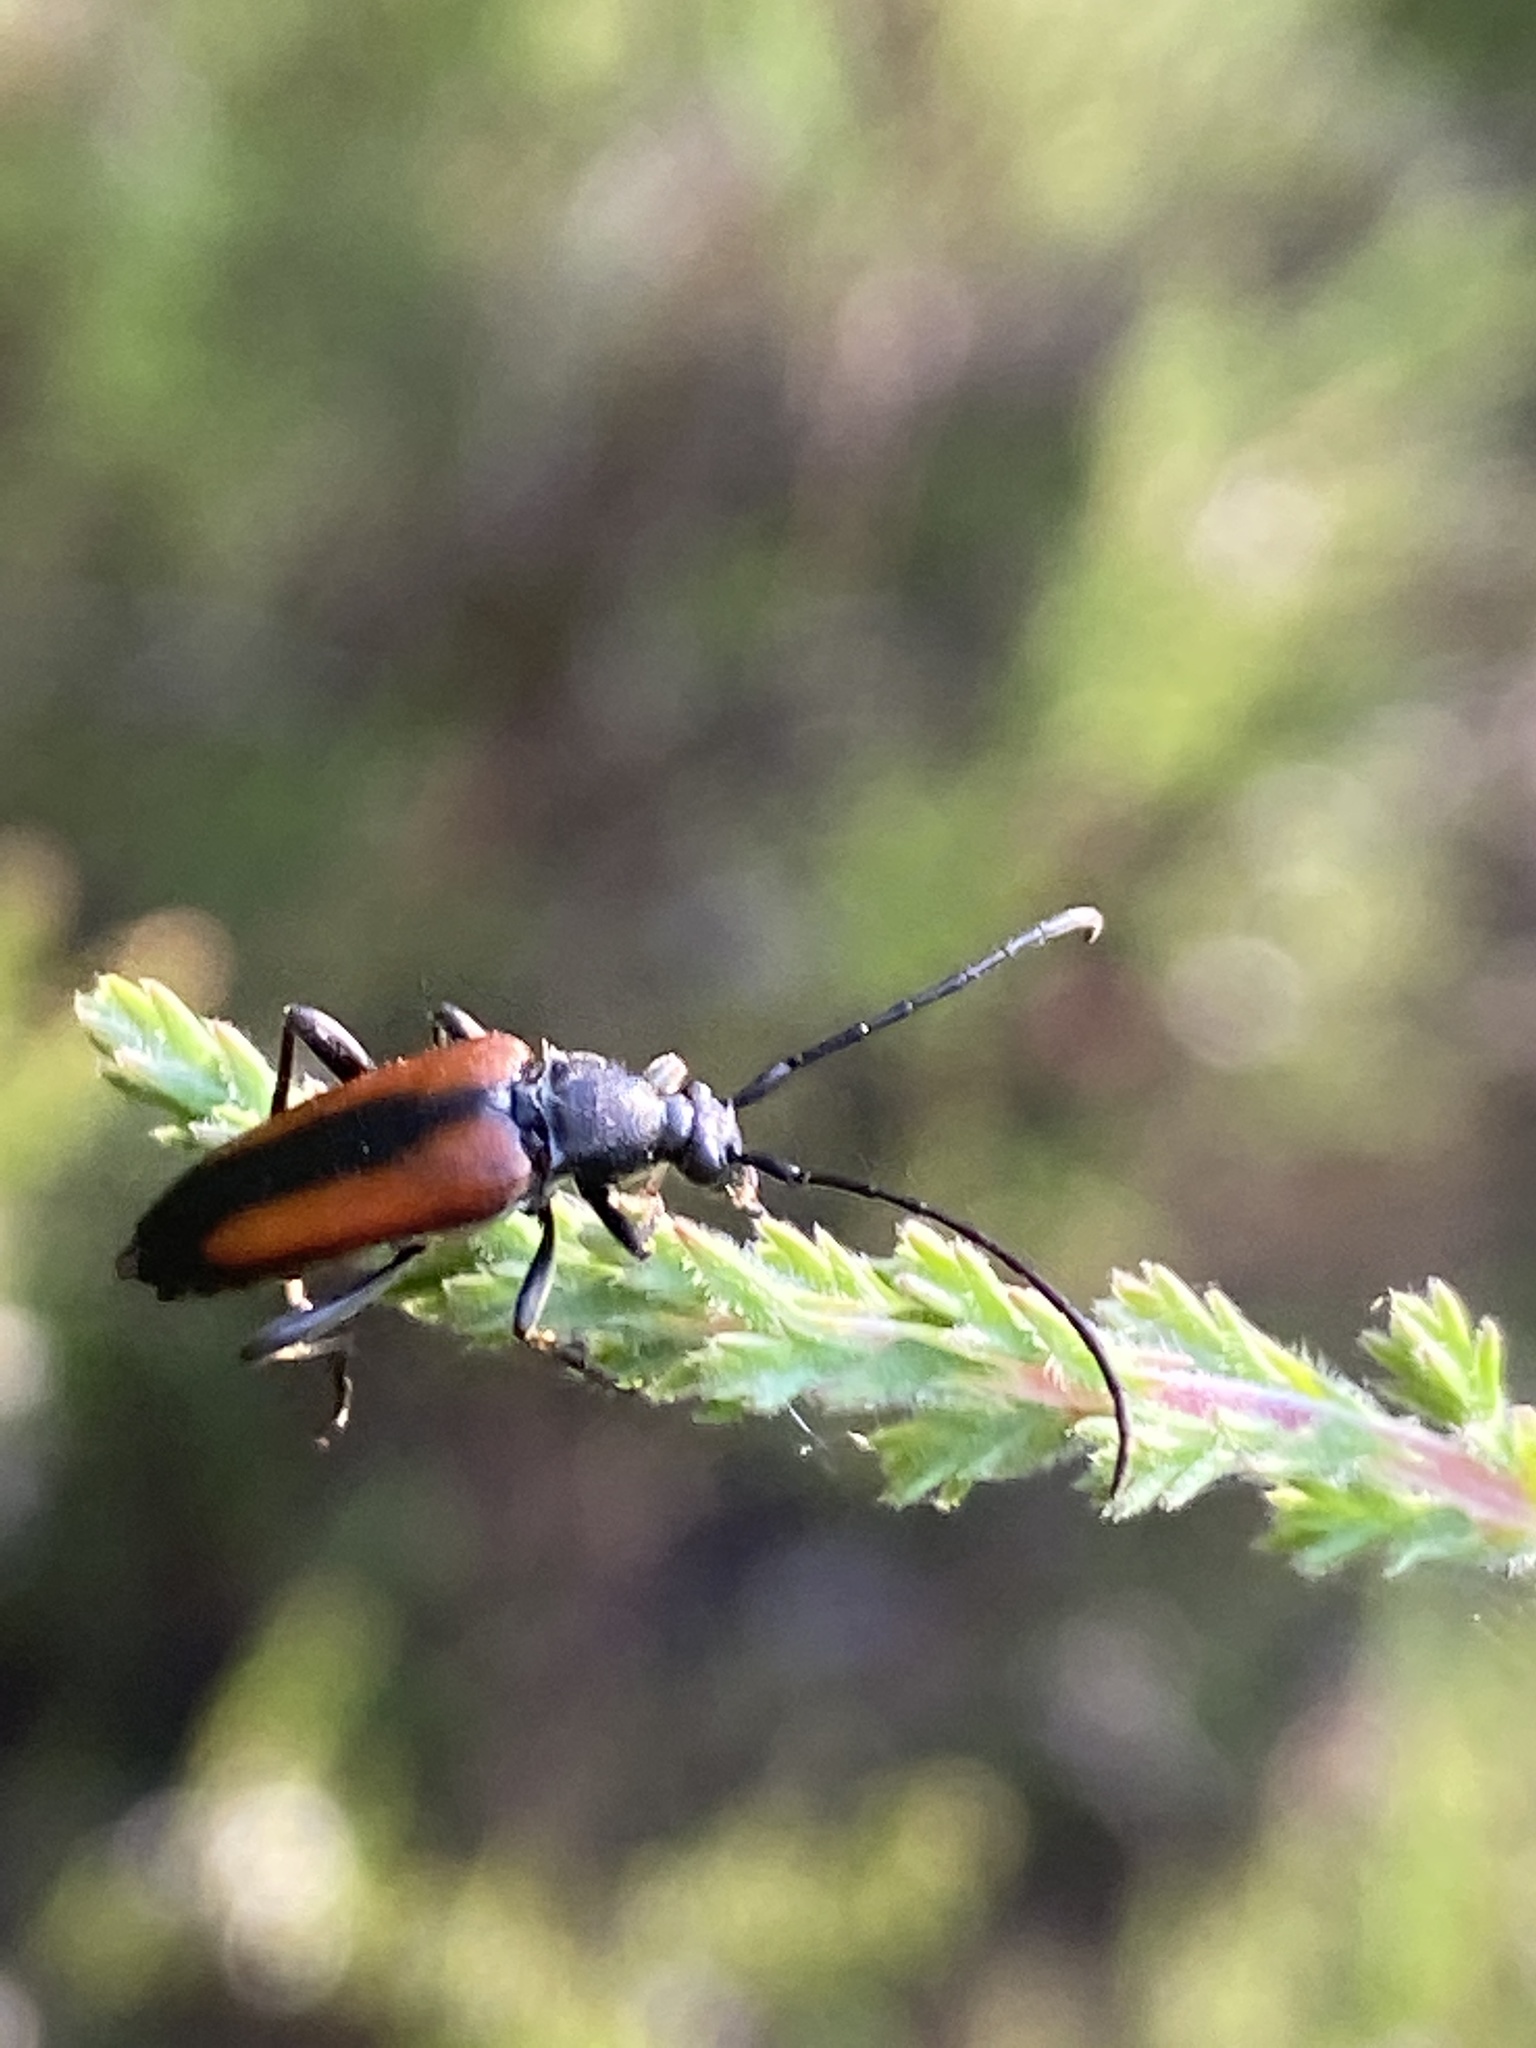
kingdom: Animalia
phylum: Arthropoda
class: Insecta
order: Coleoptera
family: Cerambycidae
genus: Stenurella
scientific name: Stenurella melanura
